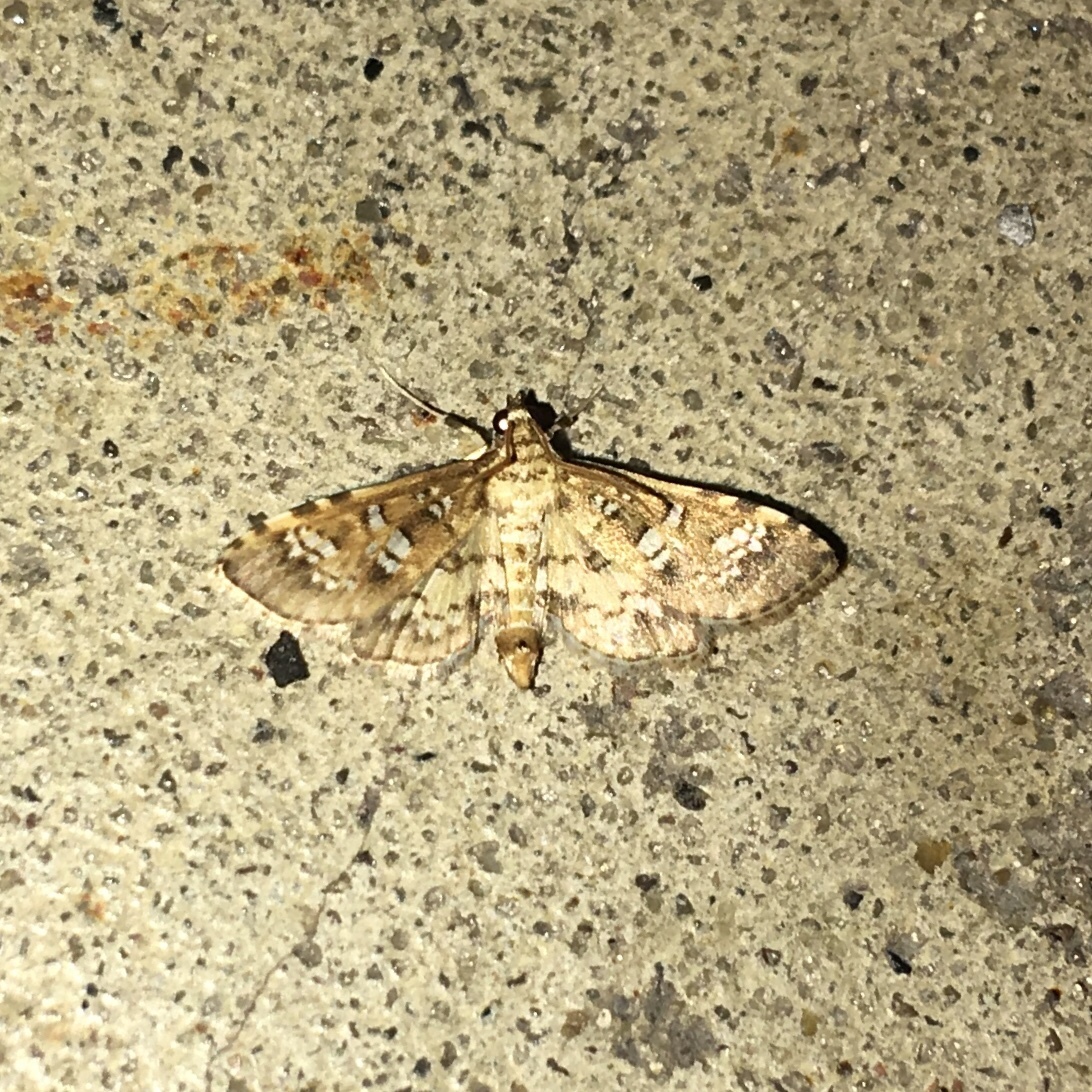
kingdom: Animalia
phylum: Arthropoda
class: Insecta
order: Lepidoptera
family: Crambidae
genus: Samea
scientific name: Samea multiplicalis
